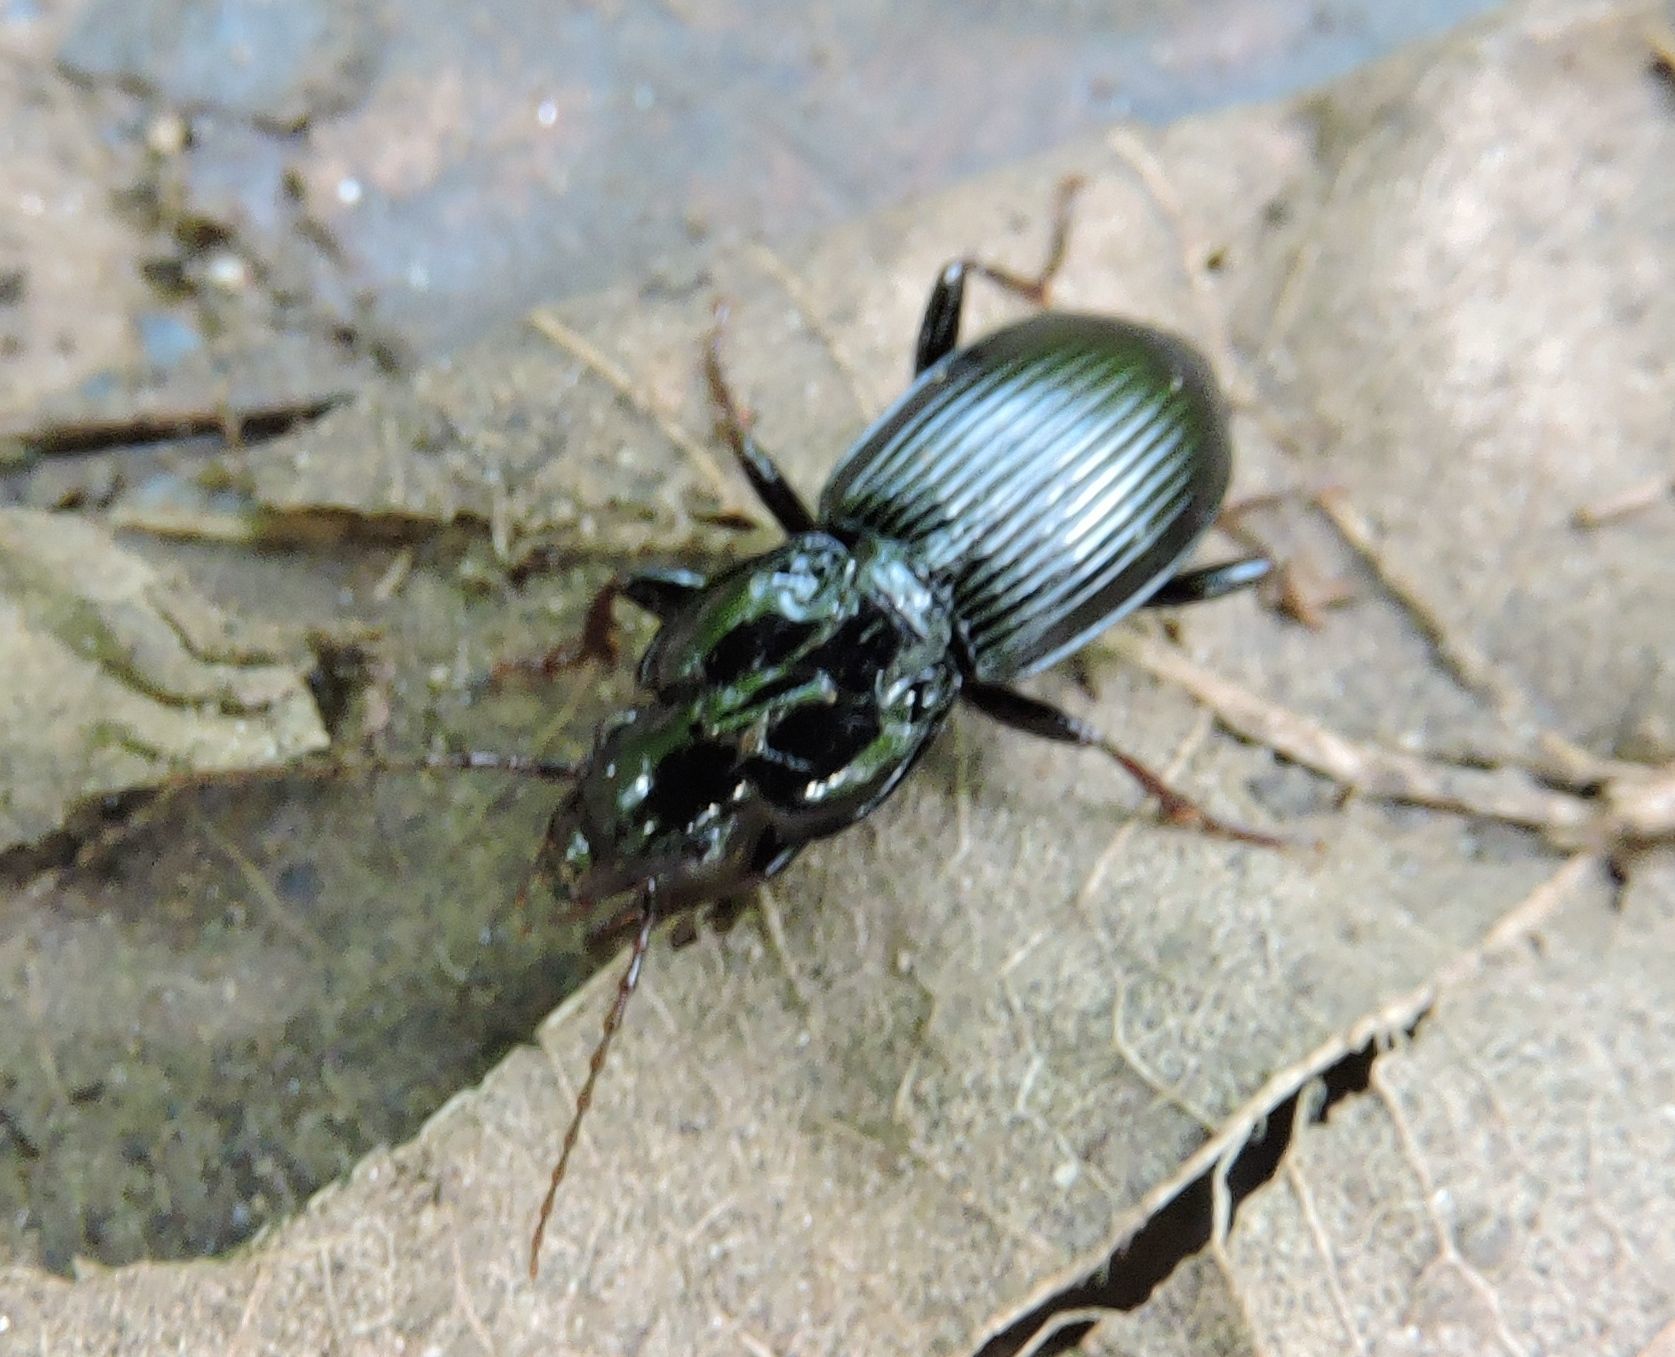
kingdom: Animalia
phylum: Arthropoda
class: Insecta
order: Coleoptera
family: Carabidae
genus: Pterostichus
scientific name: Pterostichus stygicus
